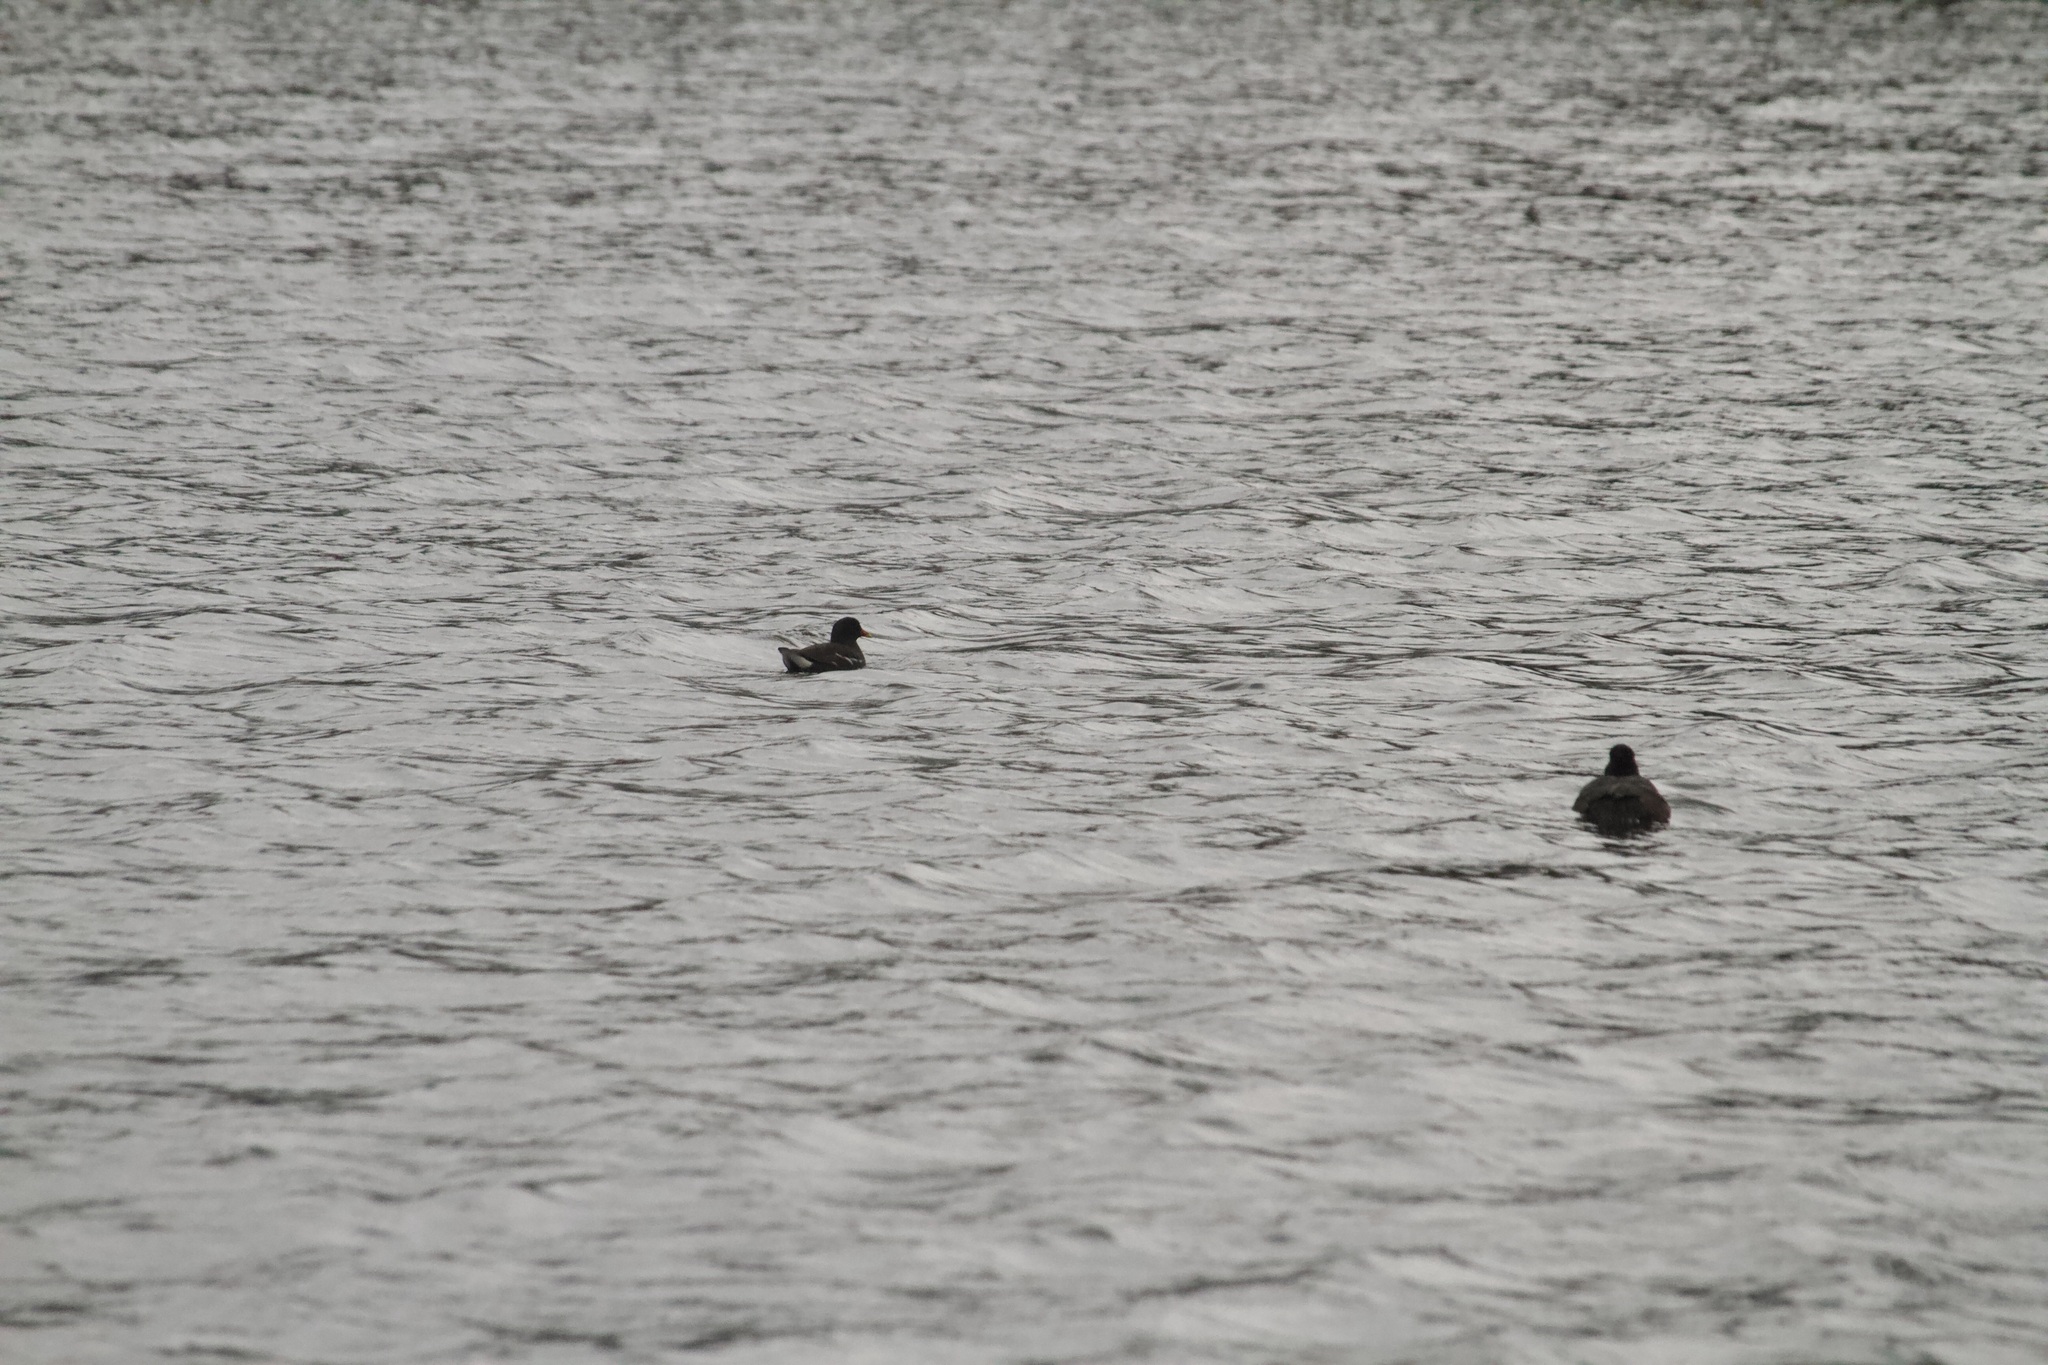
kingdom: Animalia
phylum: Chordata
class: Aves
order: Gruiformes
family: Rallidae
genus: Gallinula
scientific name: Gallinula chloropus
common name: Common moorhen
